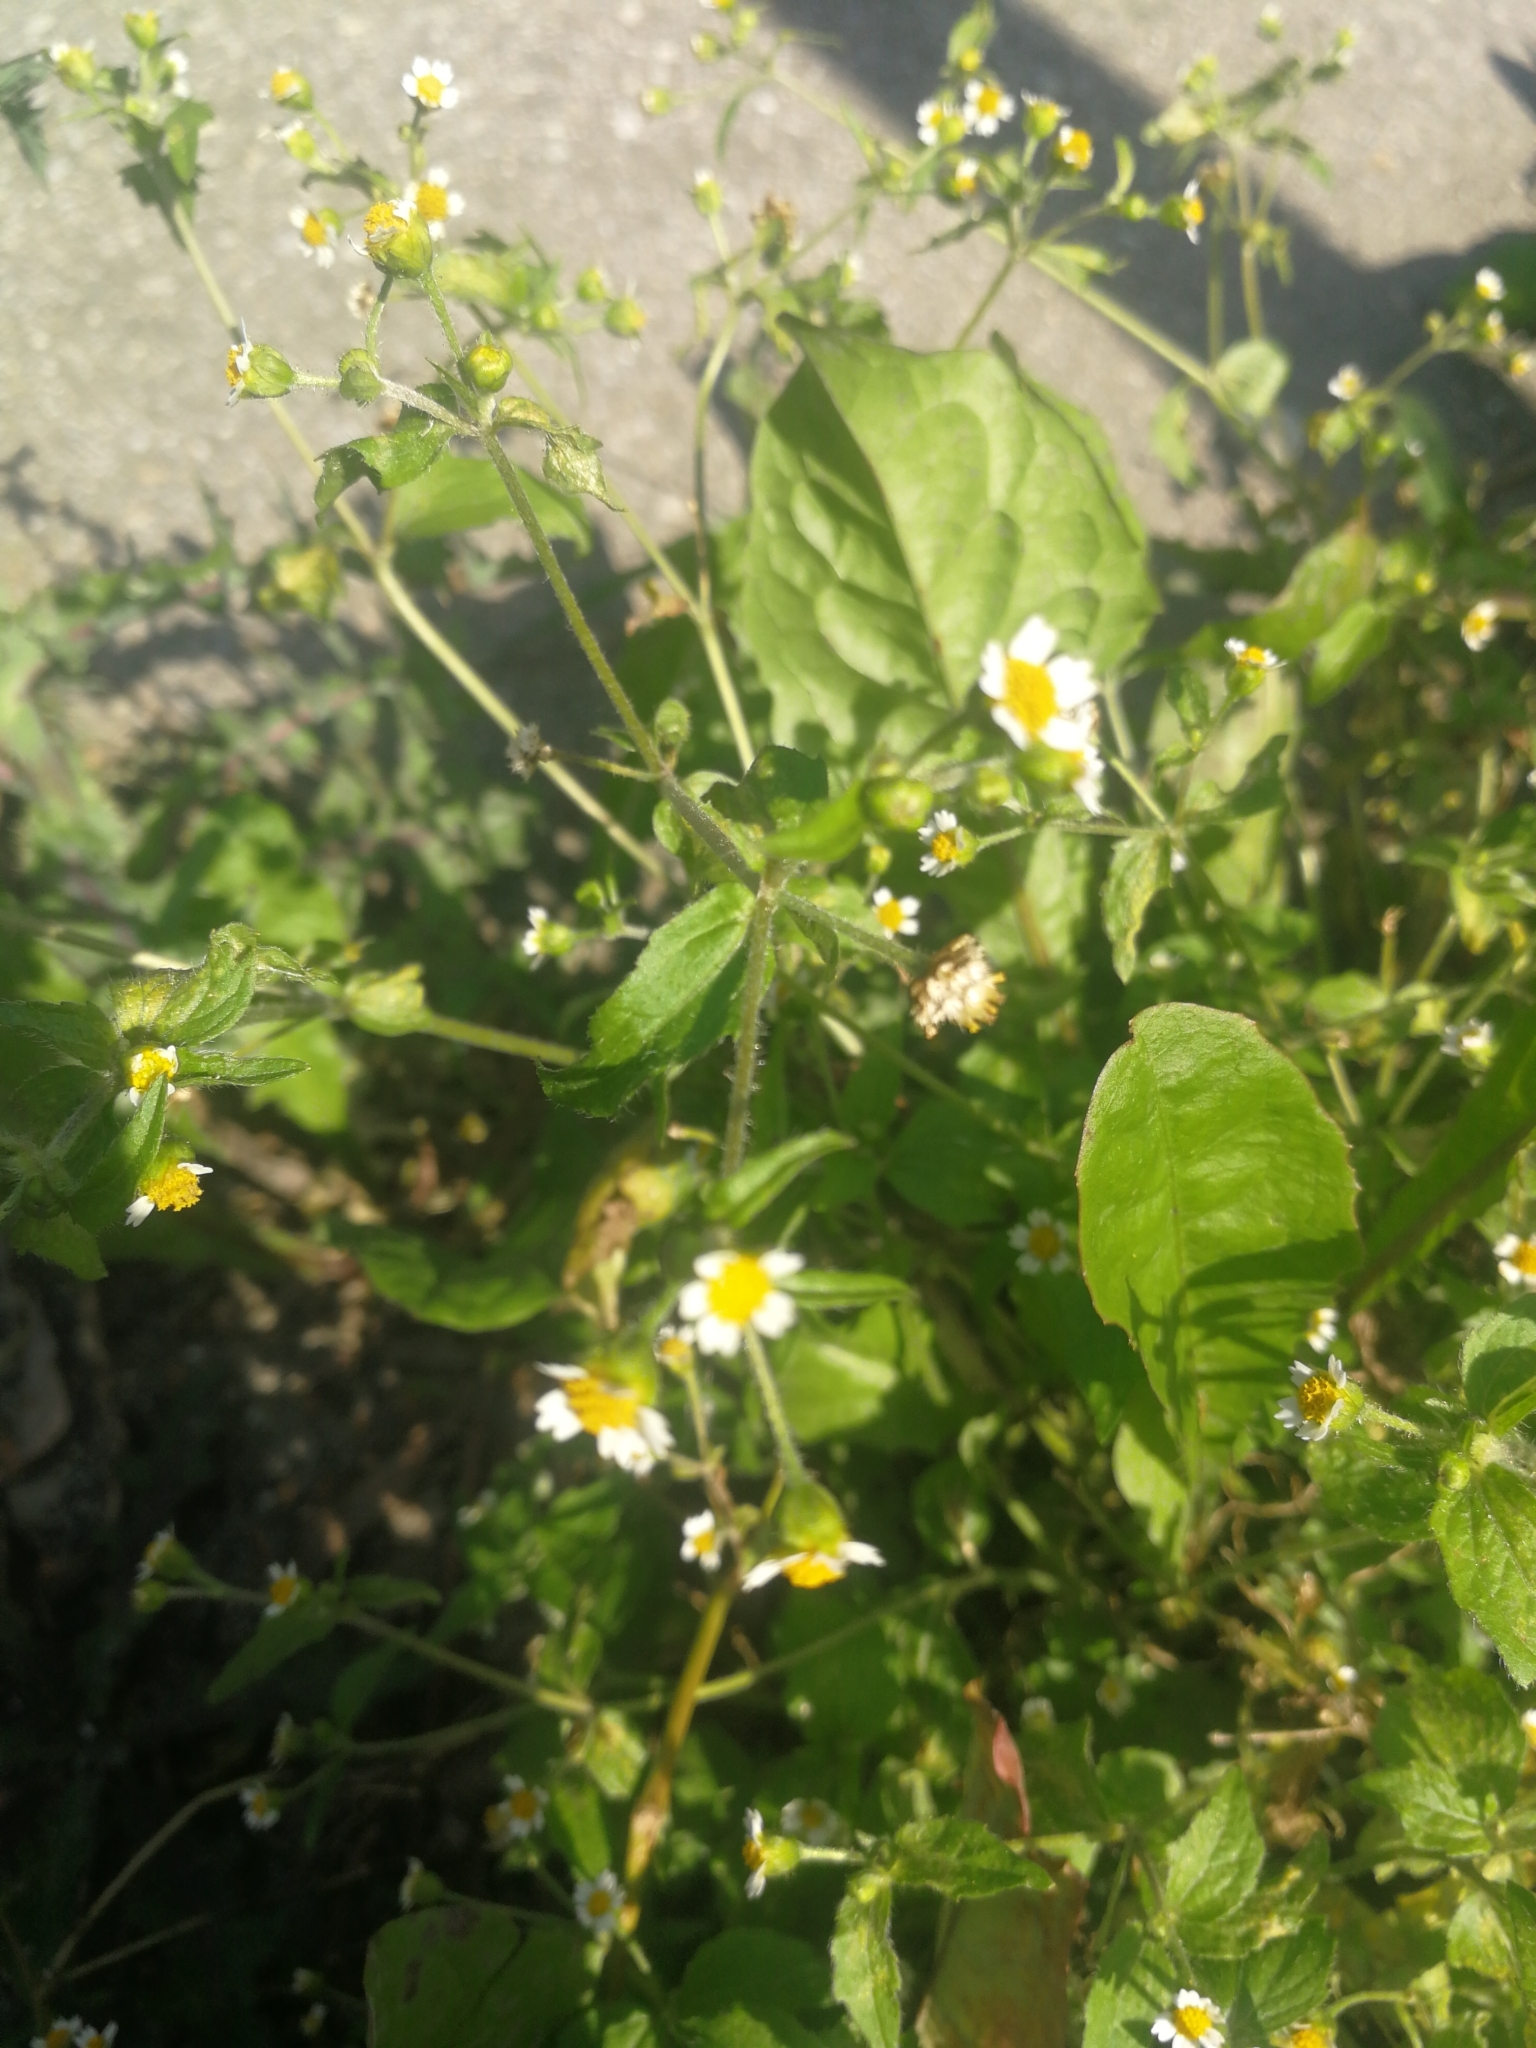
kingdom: Plantae
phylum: Tracheophyta
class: Magnoliopsida
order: Asterales
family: Asteraceae
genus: Galinsoga
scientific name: Galinsoga quadriradiata
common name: Shaggy soldier
